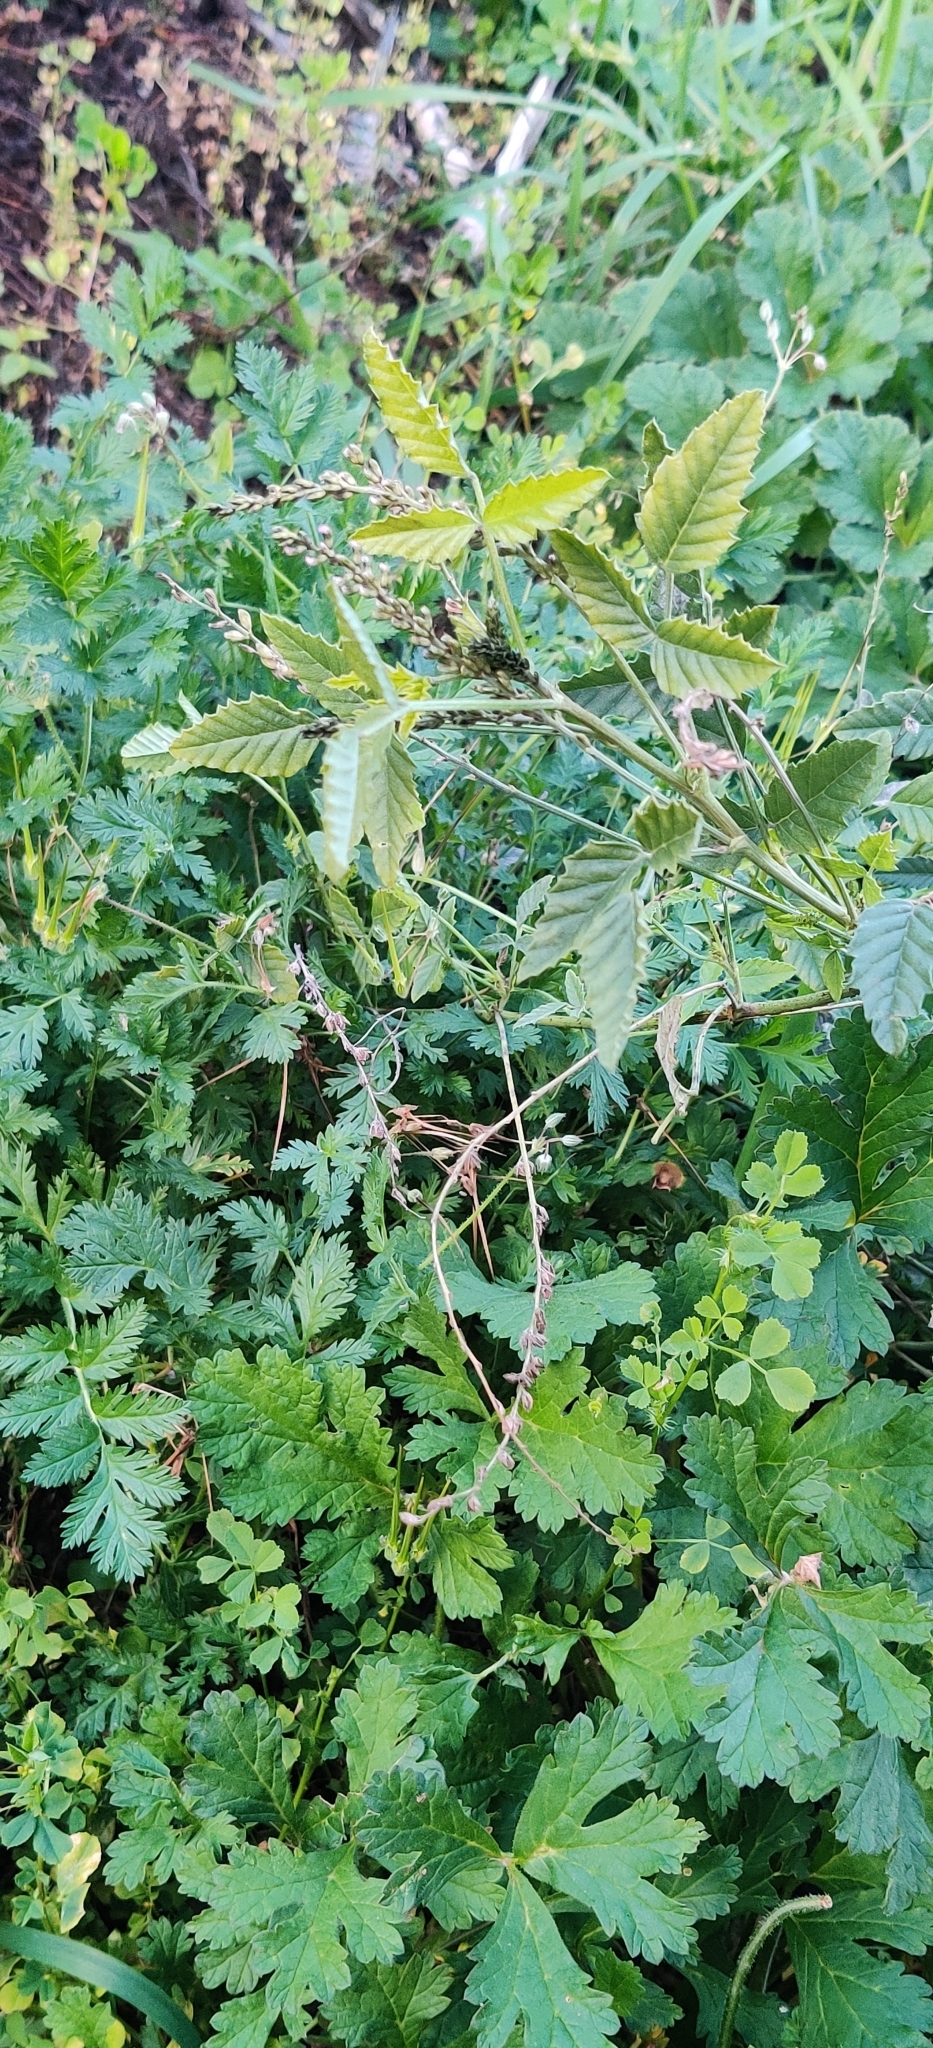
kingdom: Plantae
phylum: Tracheophyta
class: Magnoliopsida
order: Fabales
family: Fabaceae
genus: Cullen
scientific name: Cullen cinereum
